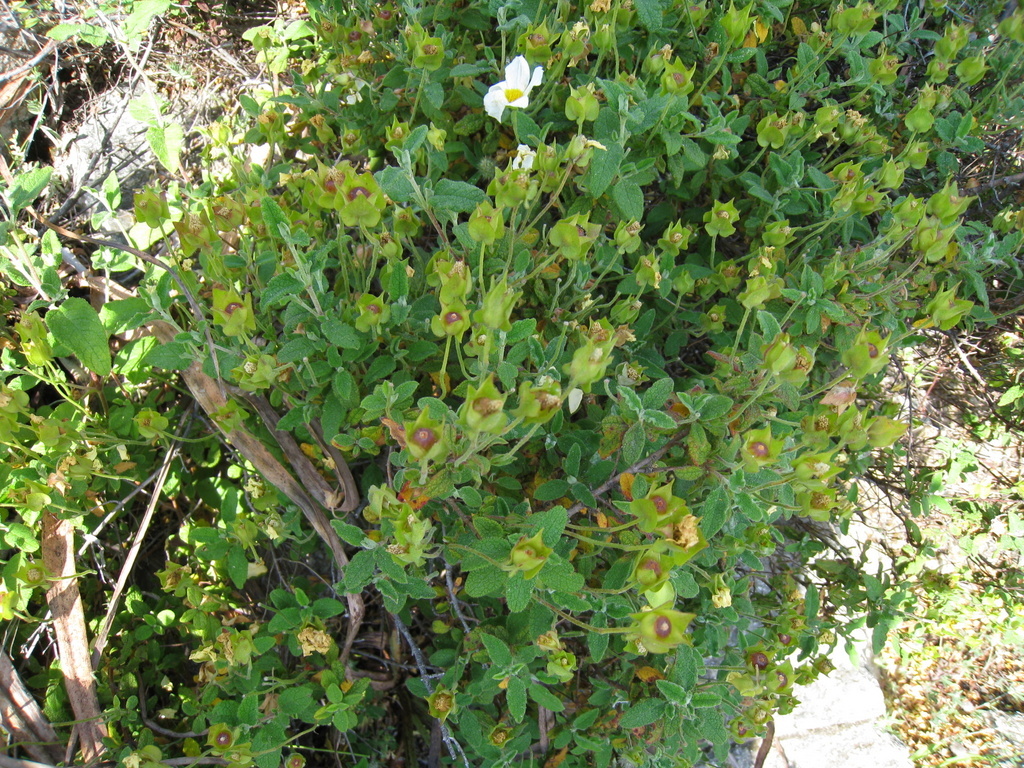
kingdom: Plantae
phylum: Tracheophyta
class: Magnoliopsida
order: Malvales
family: Cistaceae
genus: Cistus
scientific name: Cistus salviifolius
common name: Salvia cistus
